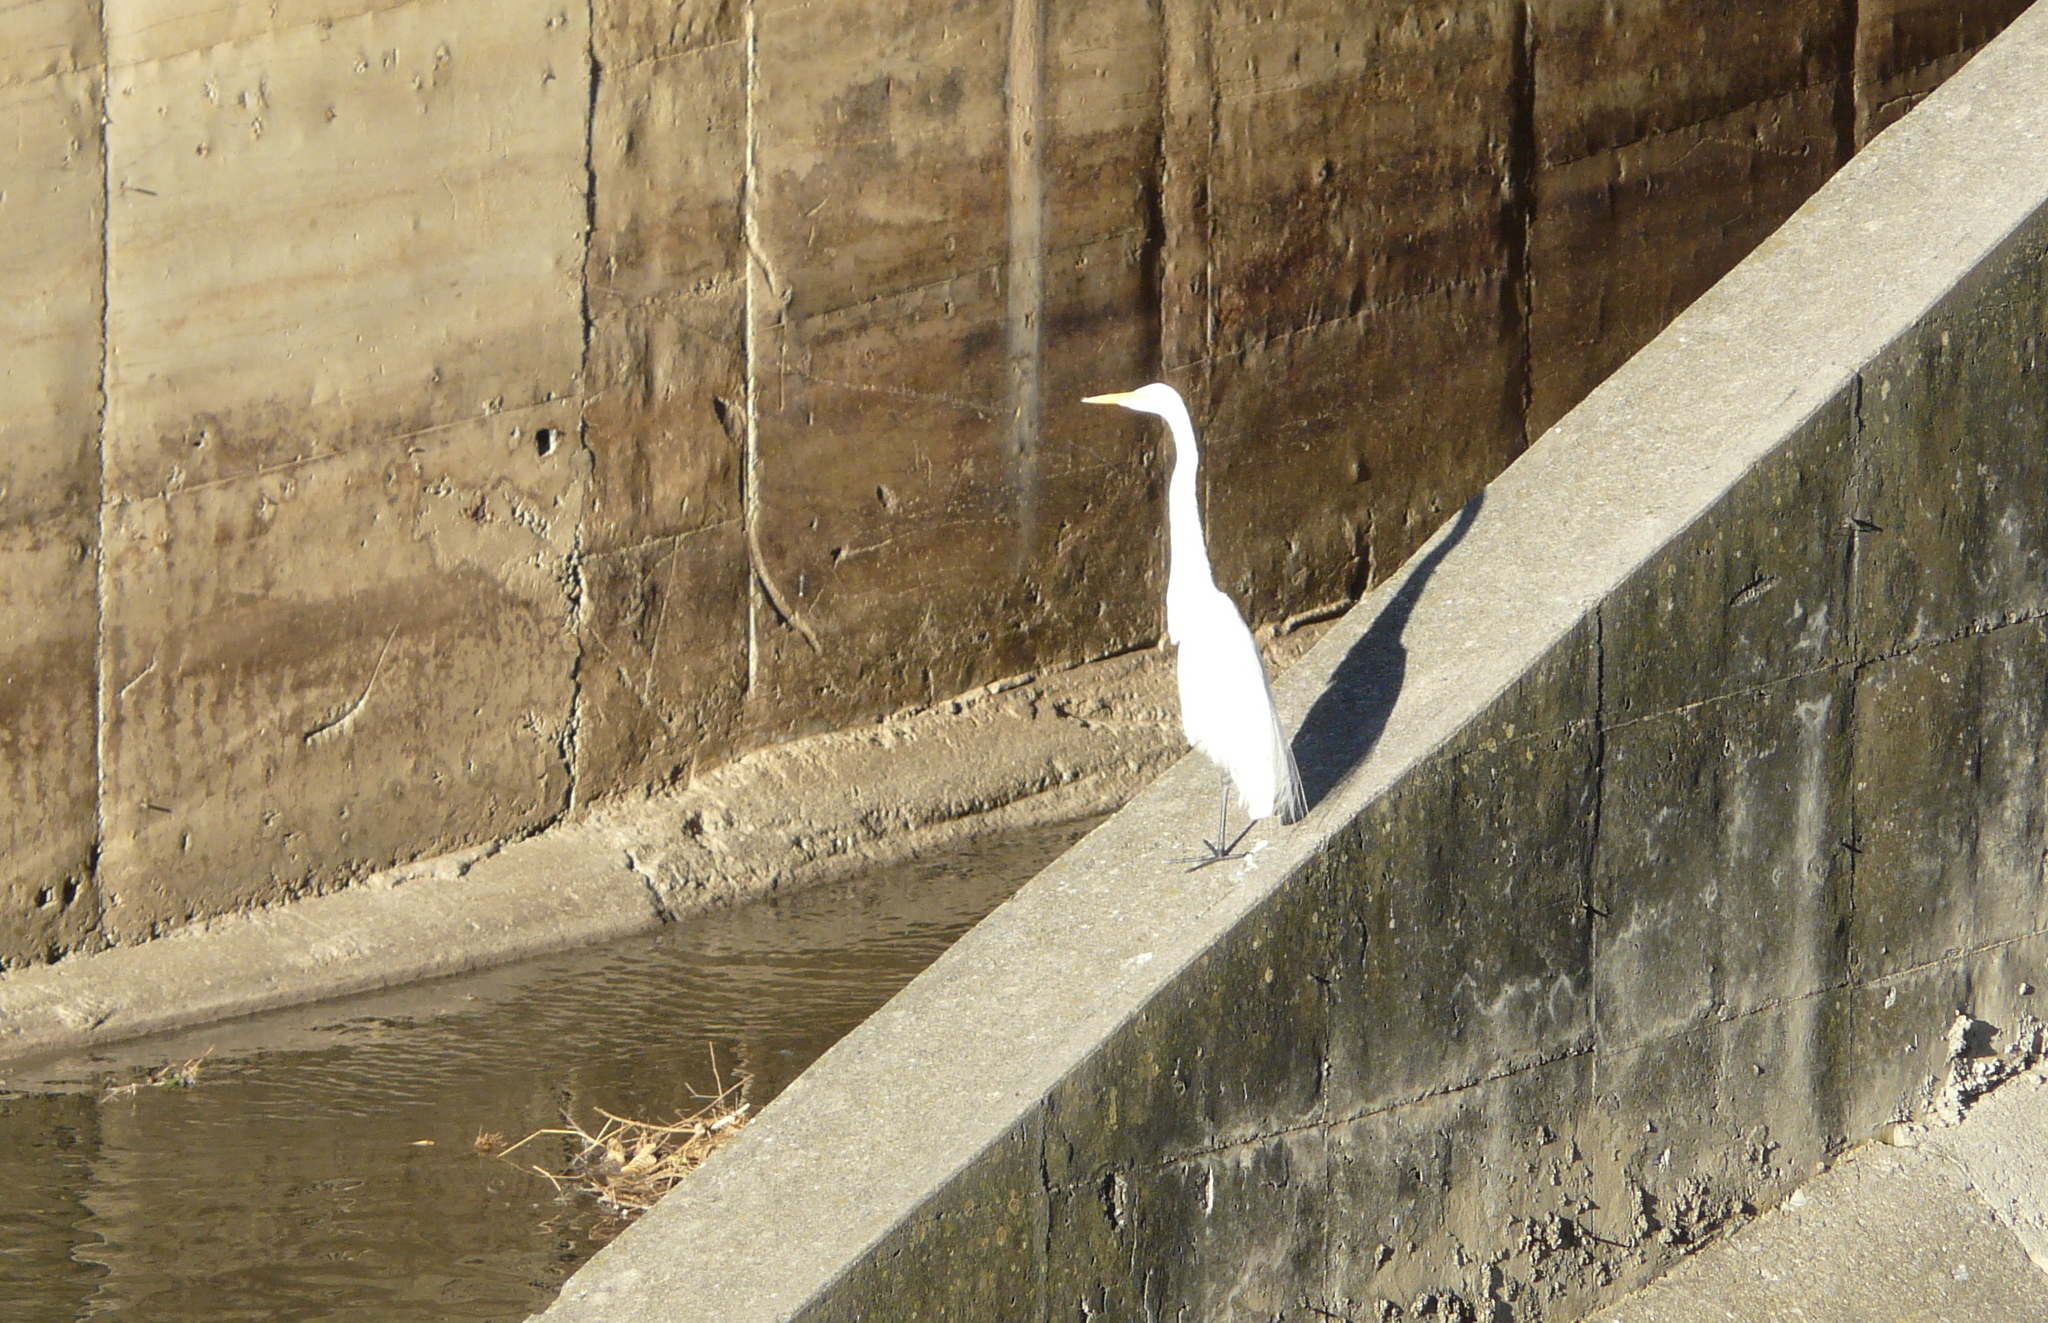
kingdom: Animalia
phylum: Chordata
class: Aves
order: Pelecaniformes
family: Ardeidae
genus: Ardea
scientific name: Ardea alba
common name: Great egret
